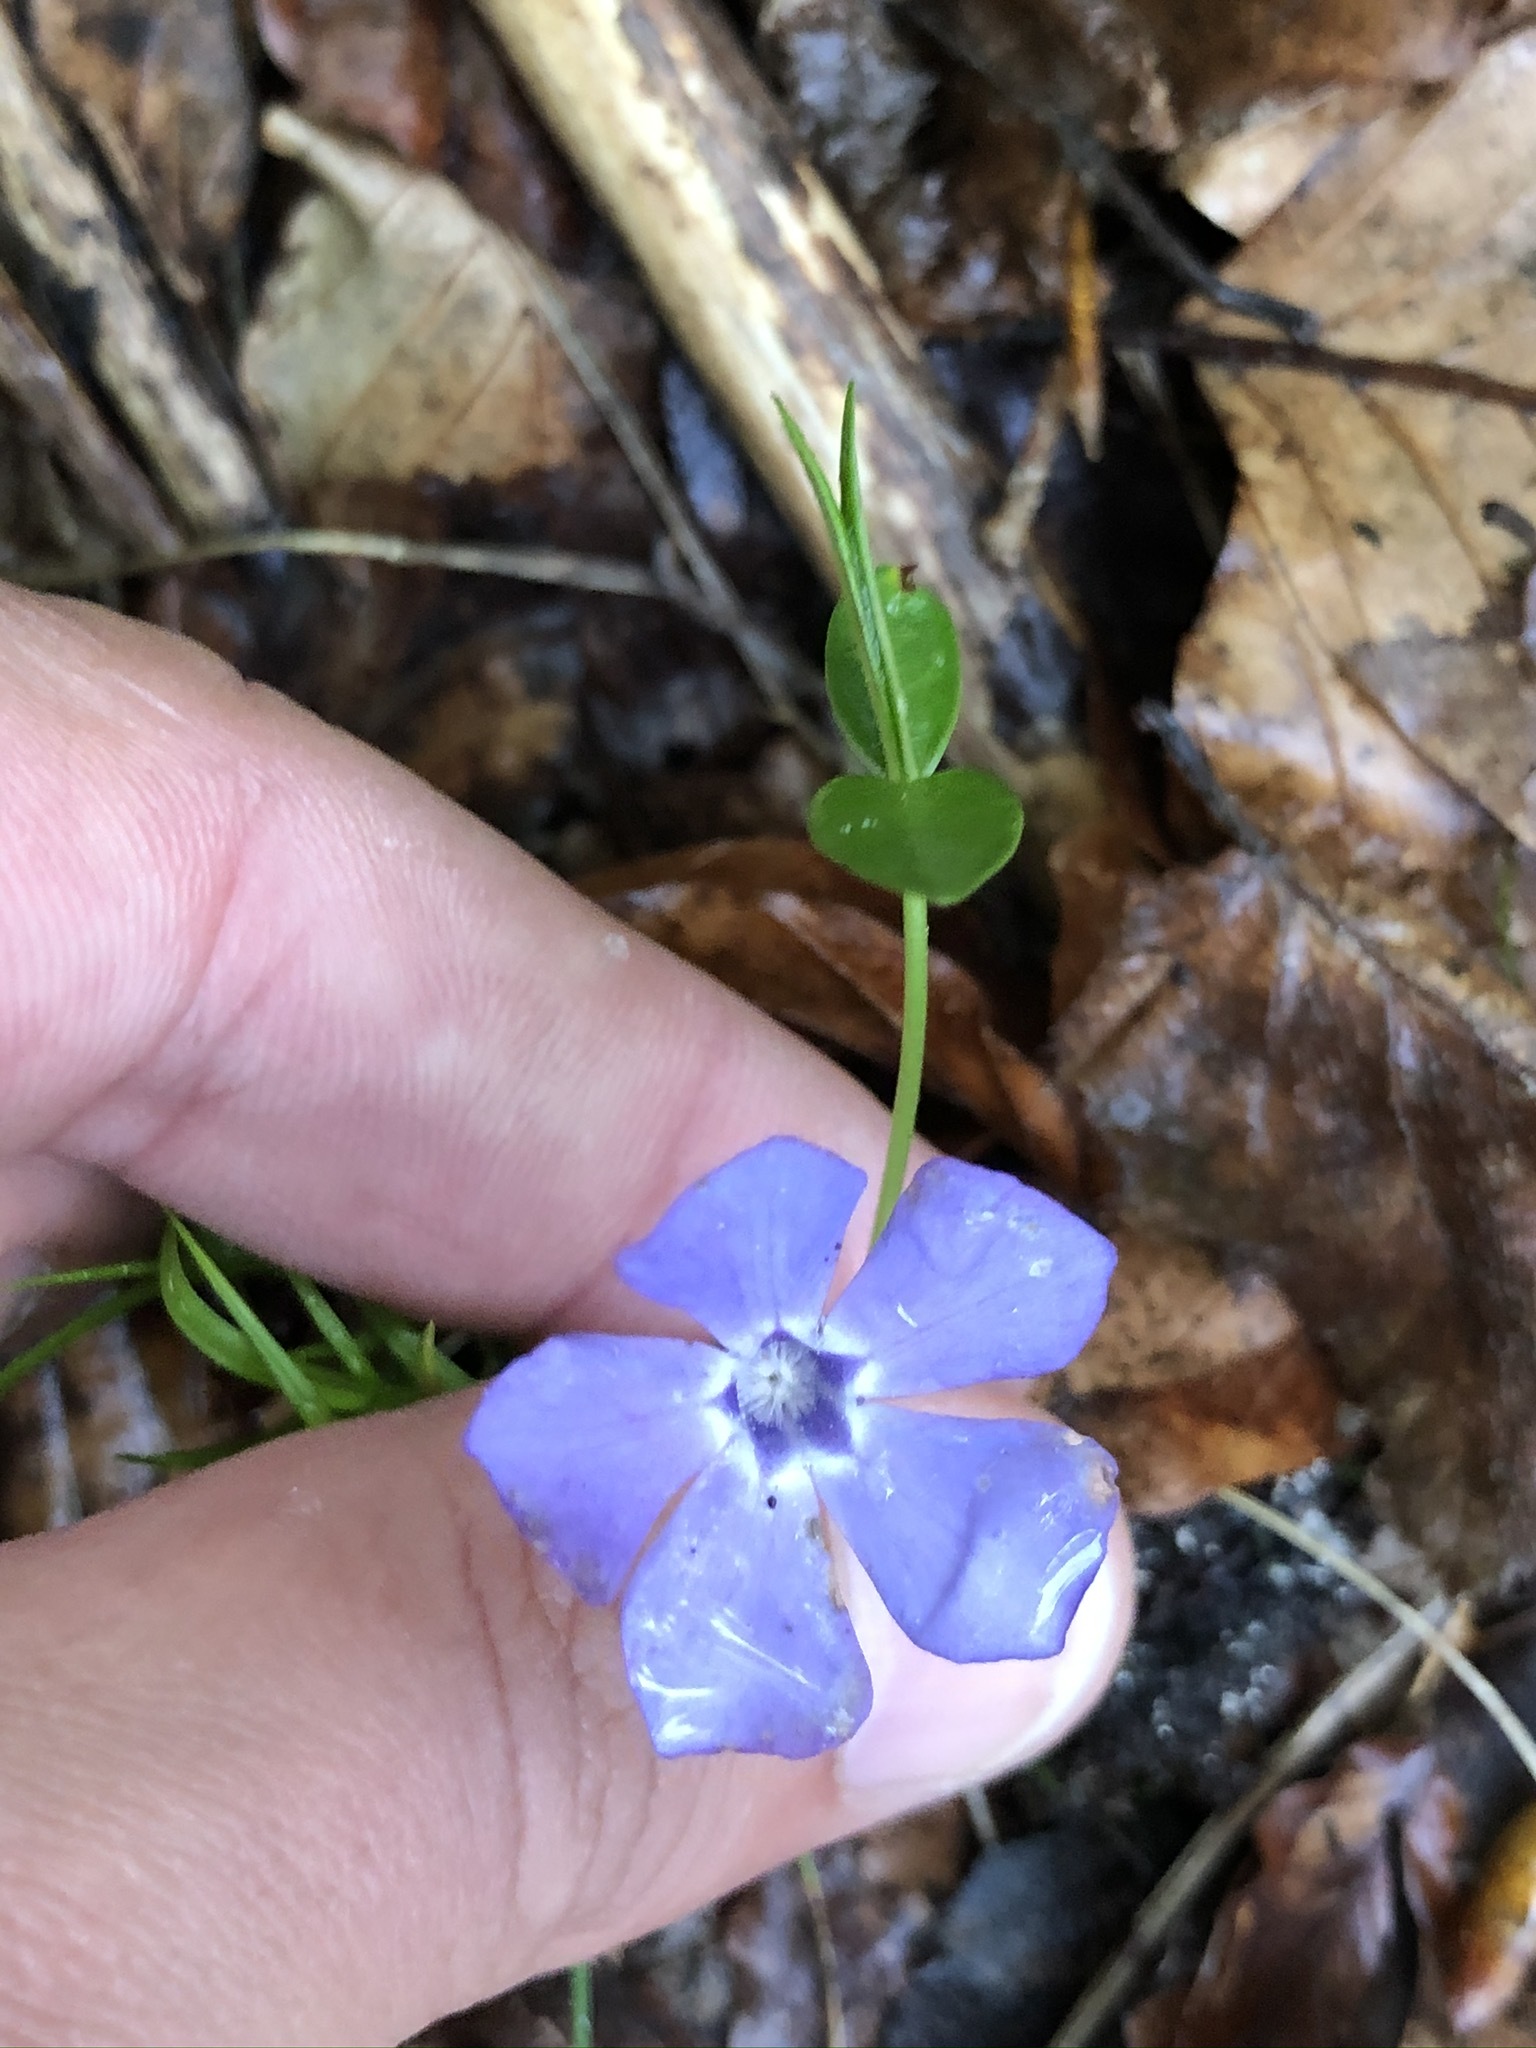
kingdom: Plantae
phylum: Tracheophyta
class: Magnoliopsida
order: Gentianales
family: Apocynaceae
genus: Vinca
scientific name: Vinca minor
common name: Lesser periwinkle
